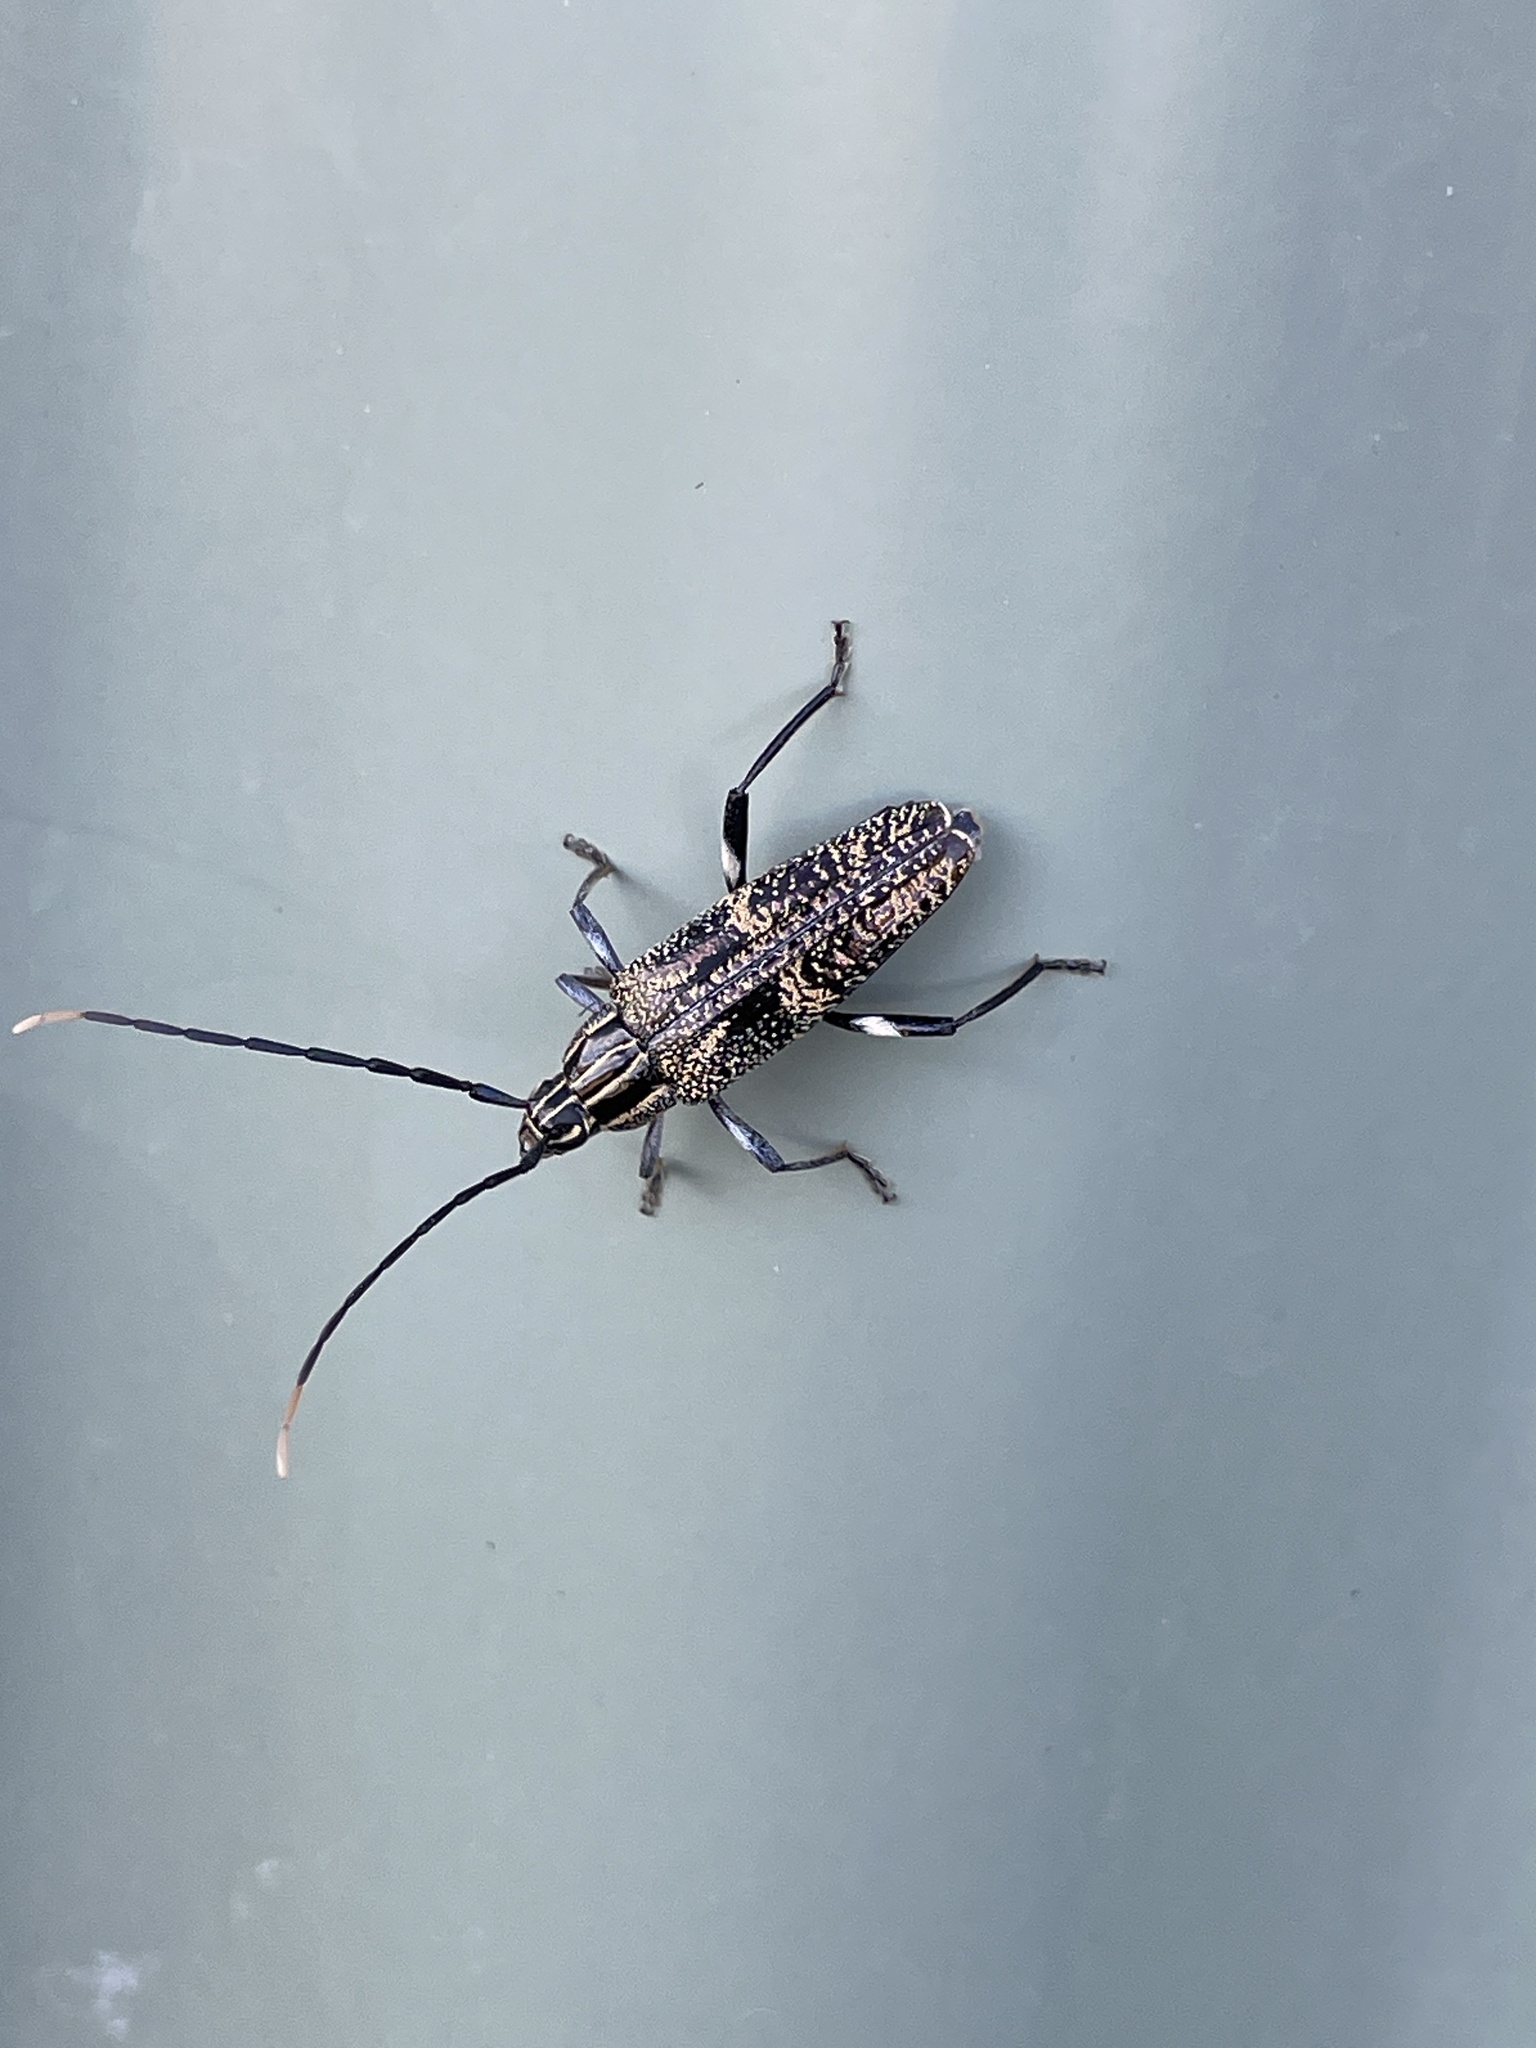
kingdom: Animalia
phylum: Arthropoda
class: Insecta
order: Coleoptera
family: Cerambycidae
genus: Coptomma
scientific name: Coptomma variegatum
